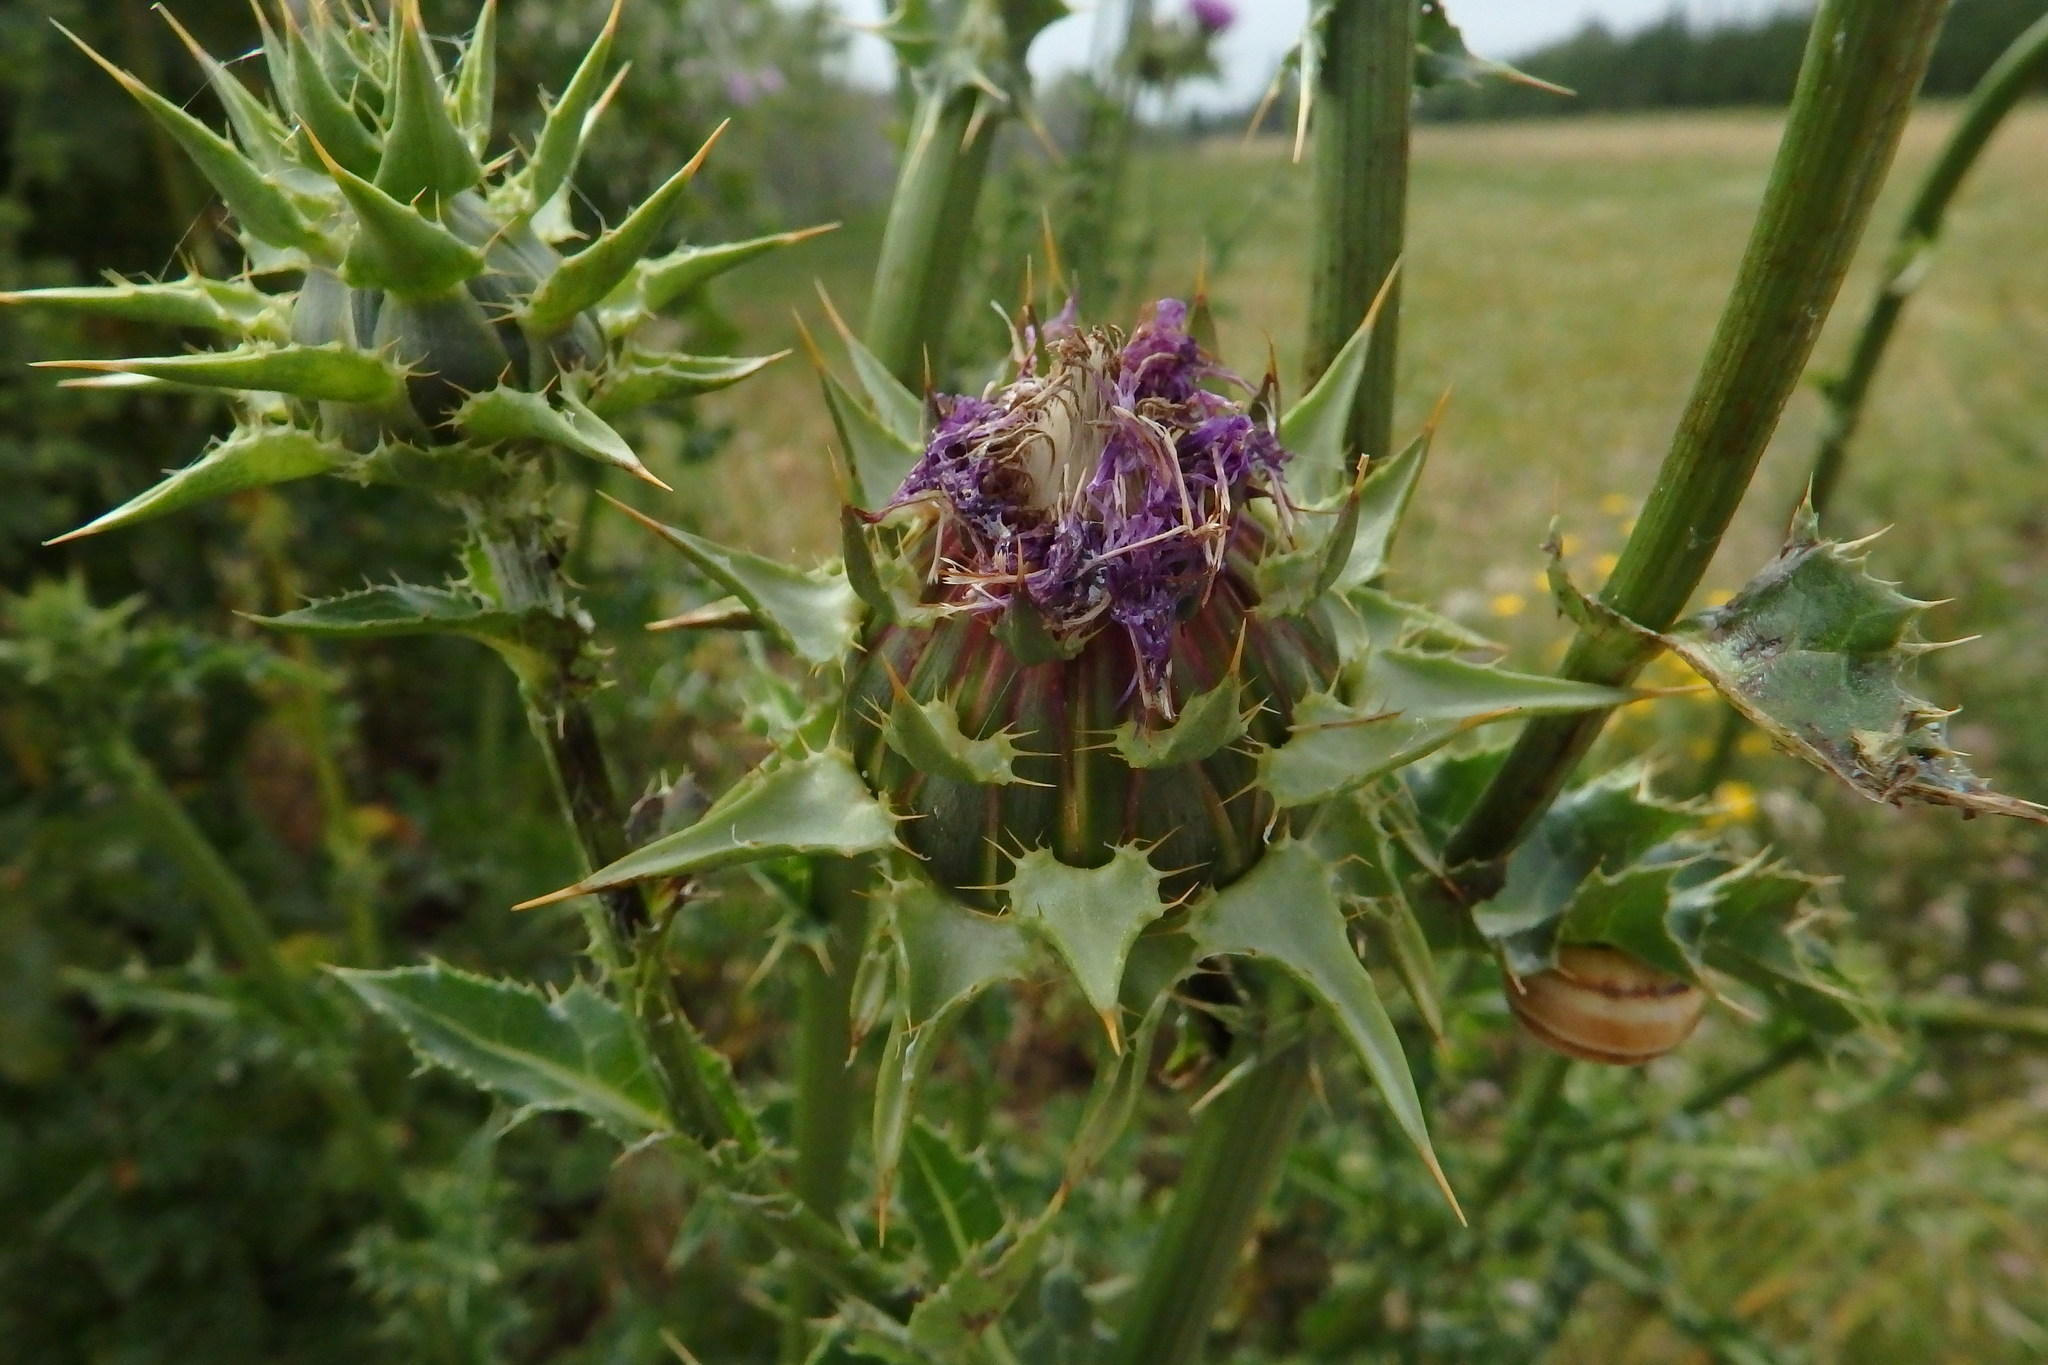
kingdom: Plantae
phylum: Tracheophyta
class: Magnoliopsida
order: Asterales
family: Asteraceae
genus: Silybum
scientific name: Silybum marianum
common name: Milk thistle
